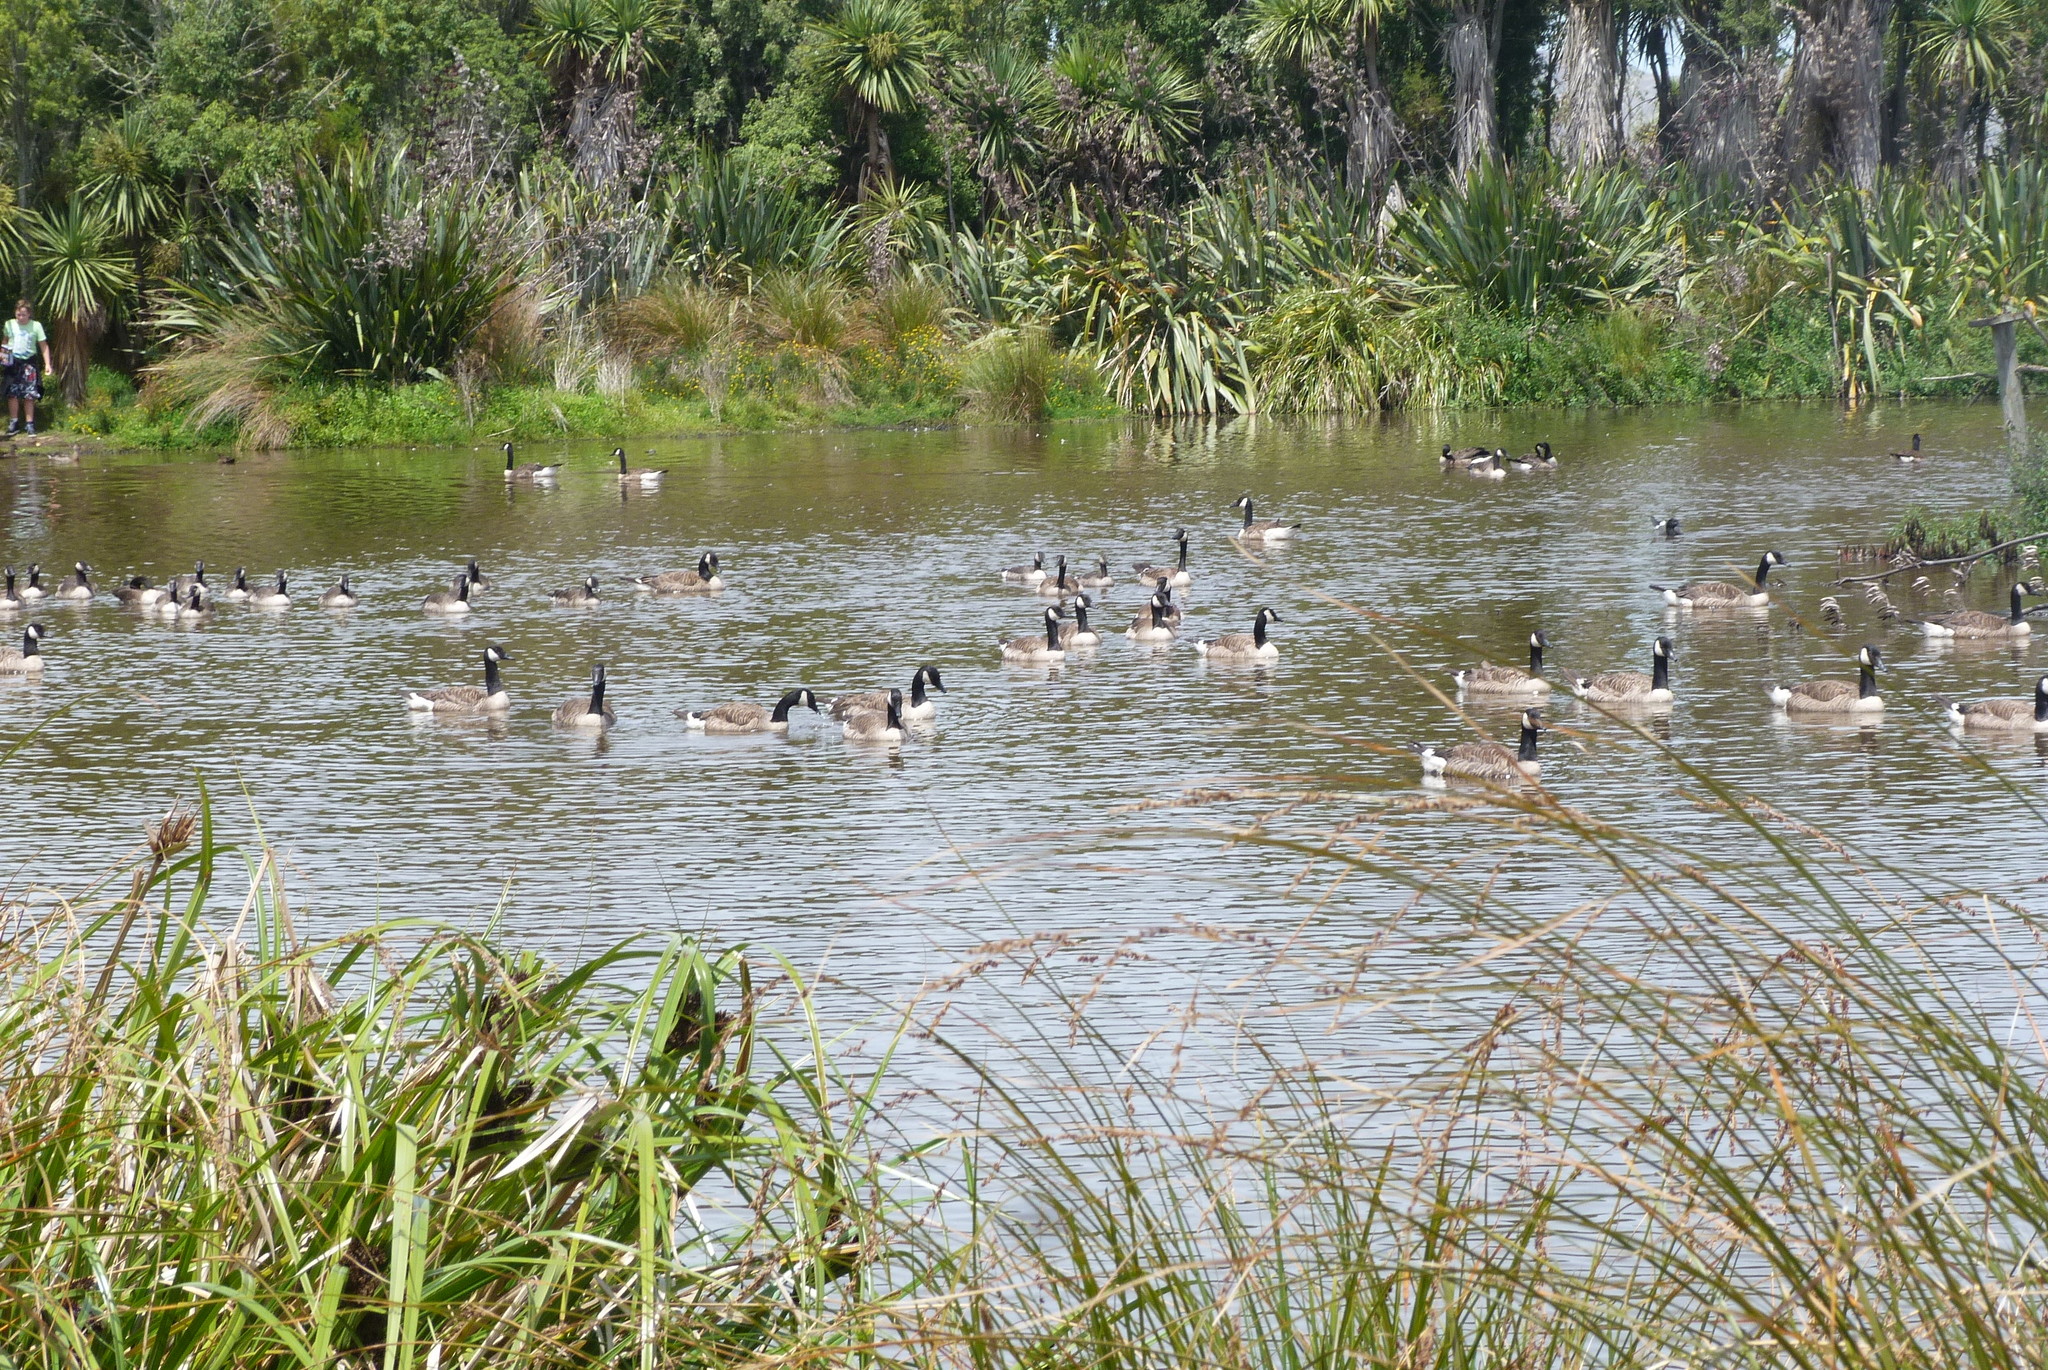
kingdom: Animalia
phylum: Chordata
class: Aves
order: Anseriformes
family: Anatidae
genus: Branta
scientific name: Branta canadensis
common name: Canada goose
